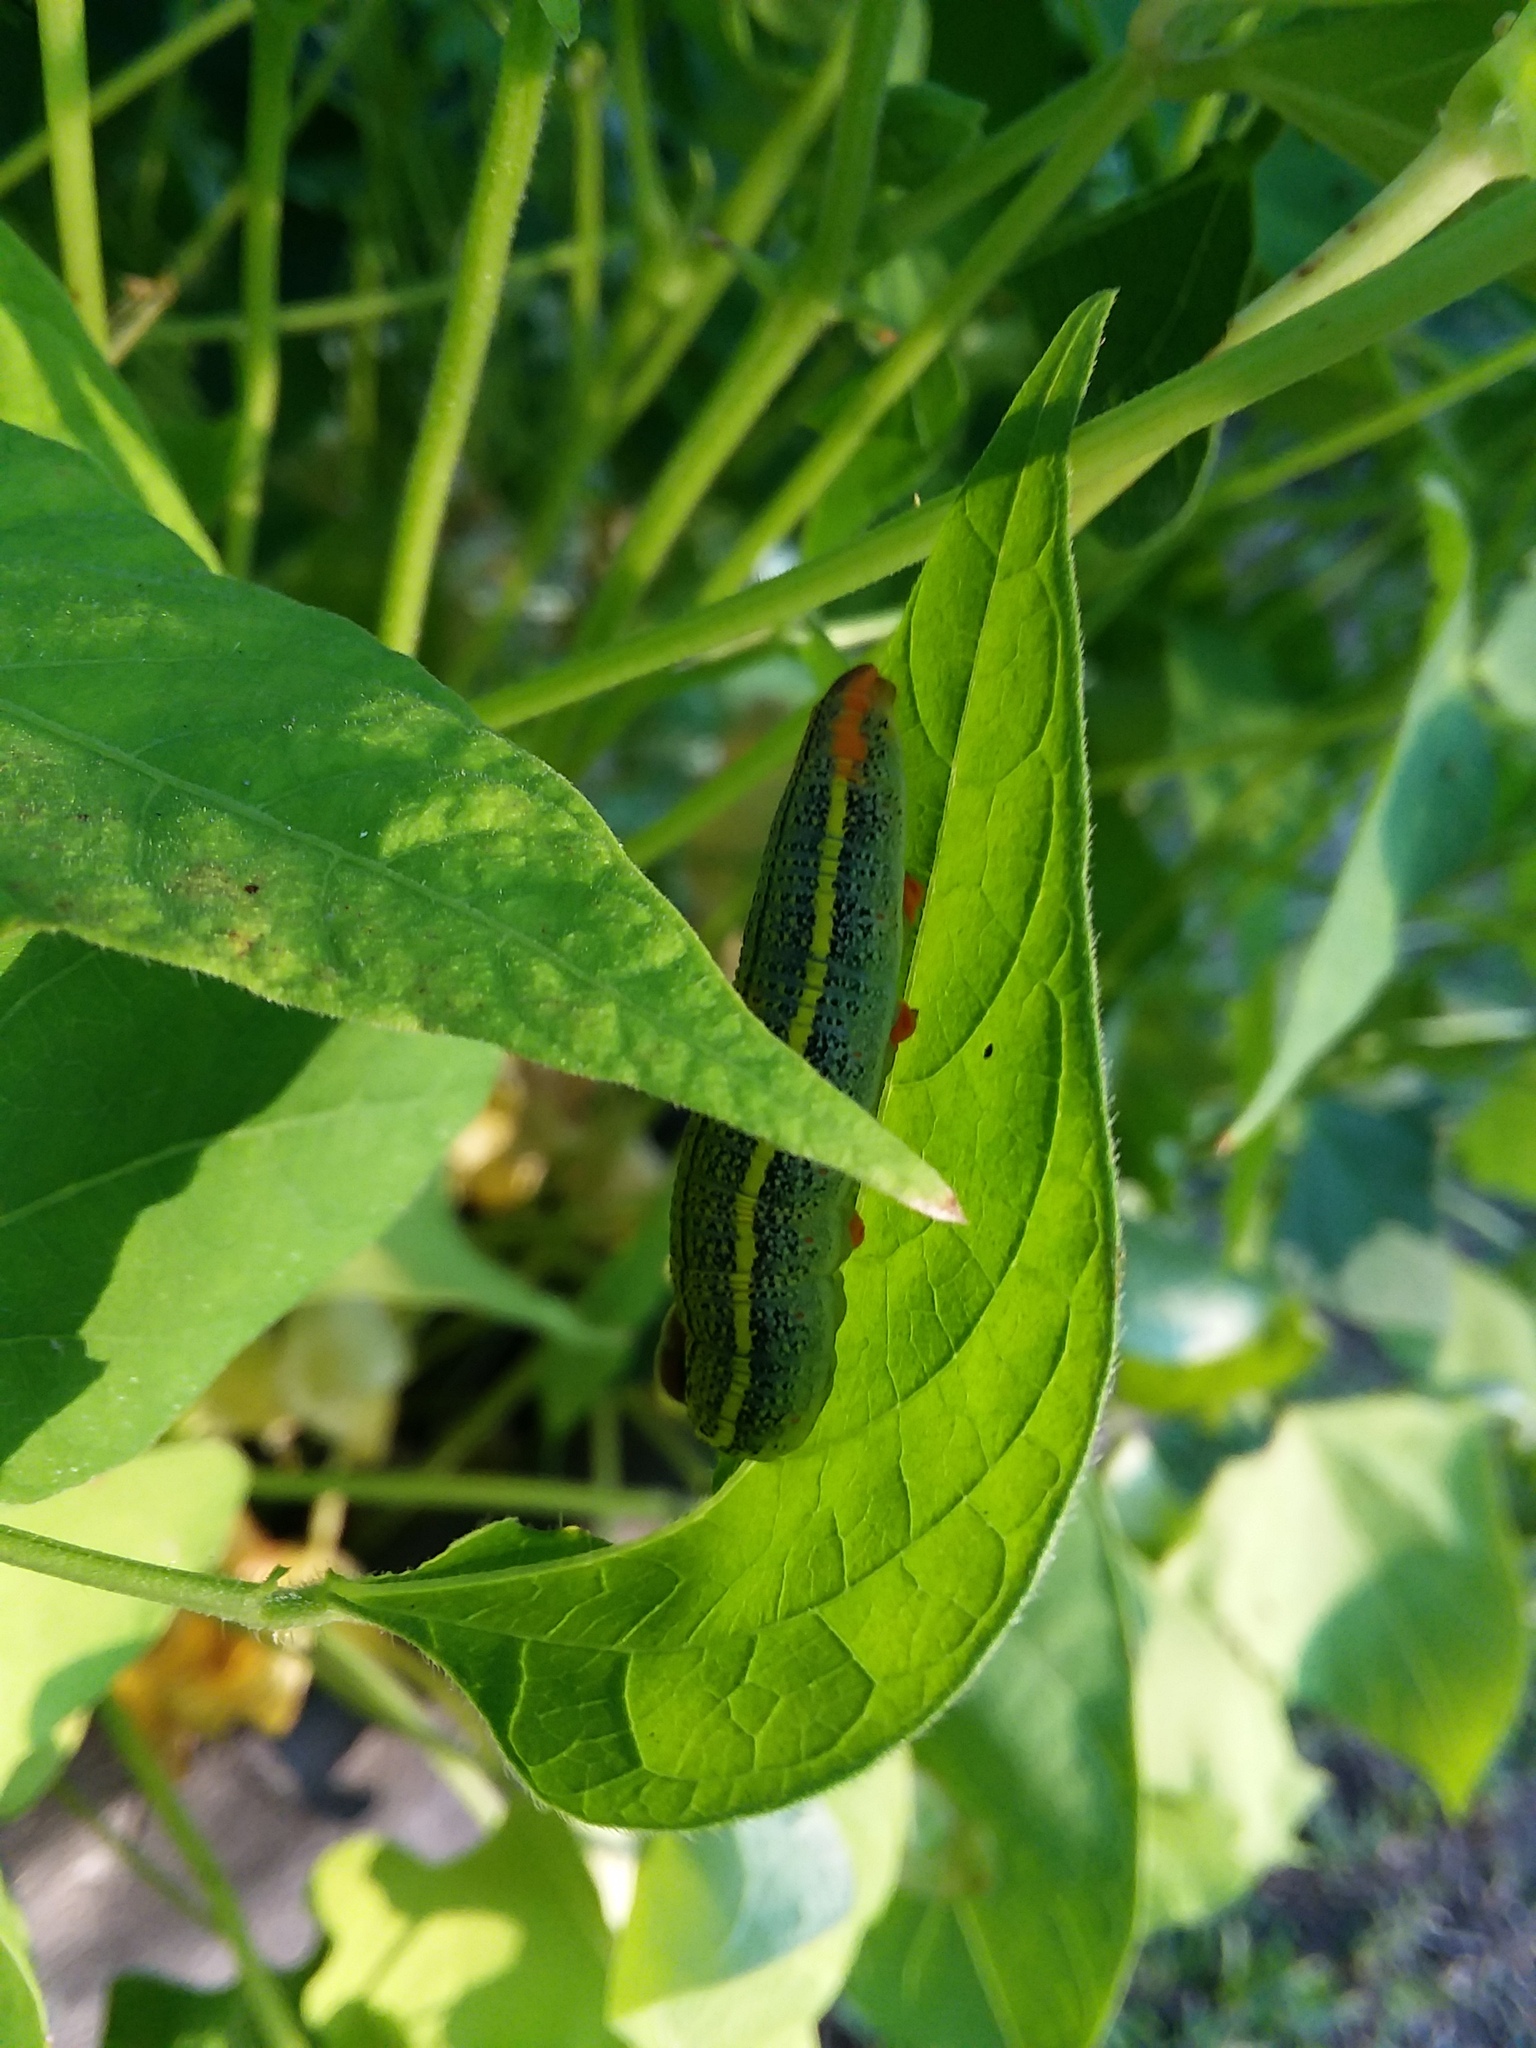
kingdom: Animalia
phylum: Arthropoda
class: Insecta
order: Lepidoptera
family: Hesperiidae
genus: Urbanus
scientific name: Urbanus proteus
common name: Long-tailed skipper
